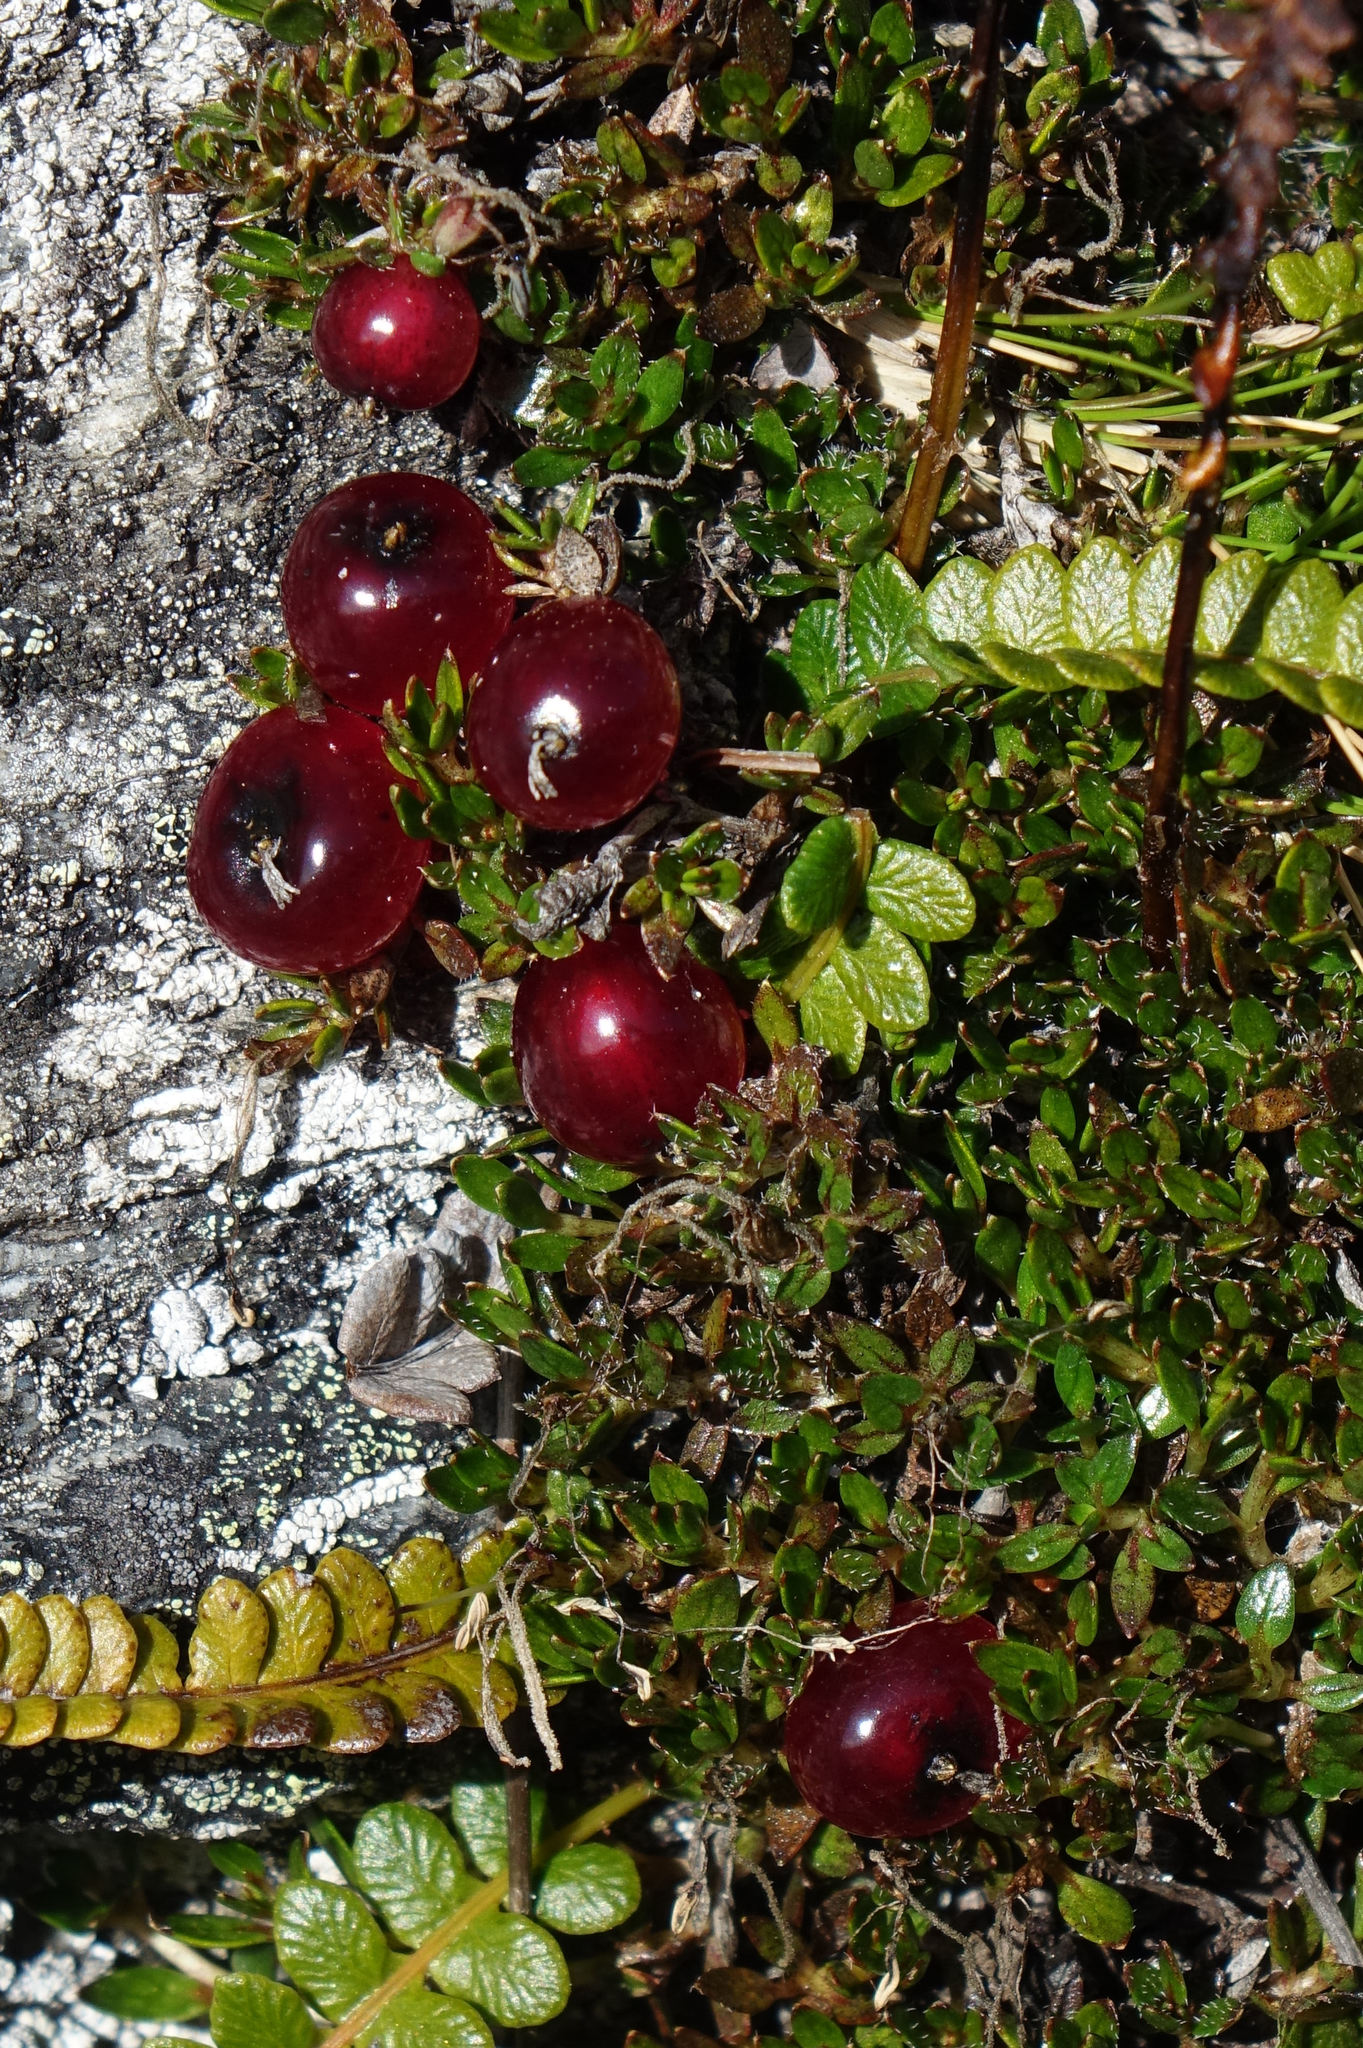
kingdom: Plantae
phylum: Tracheophyta
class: Magnoliopsida
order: Gentianales
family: Rubiaceae
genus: Coprosma
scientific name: Coprosma atropurpurea
